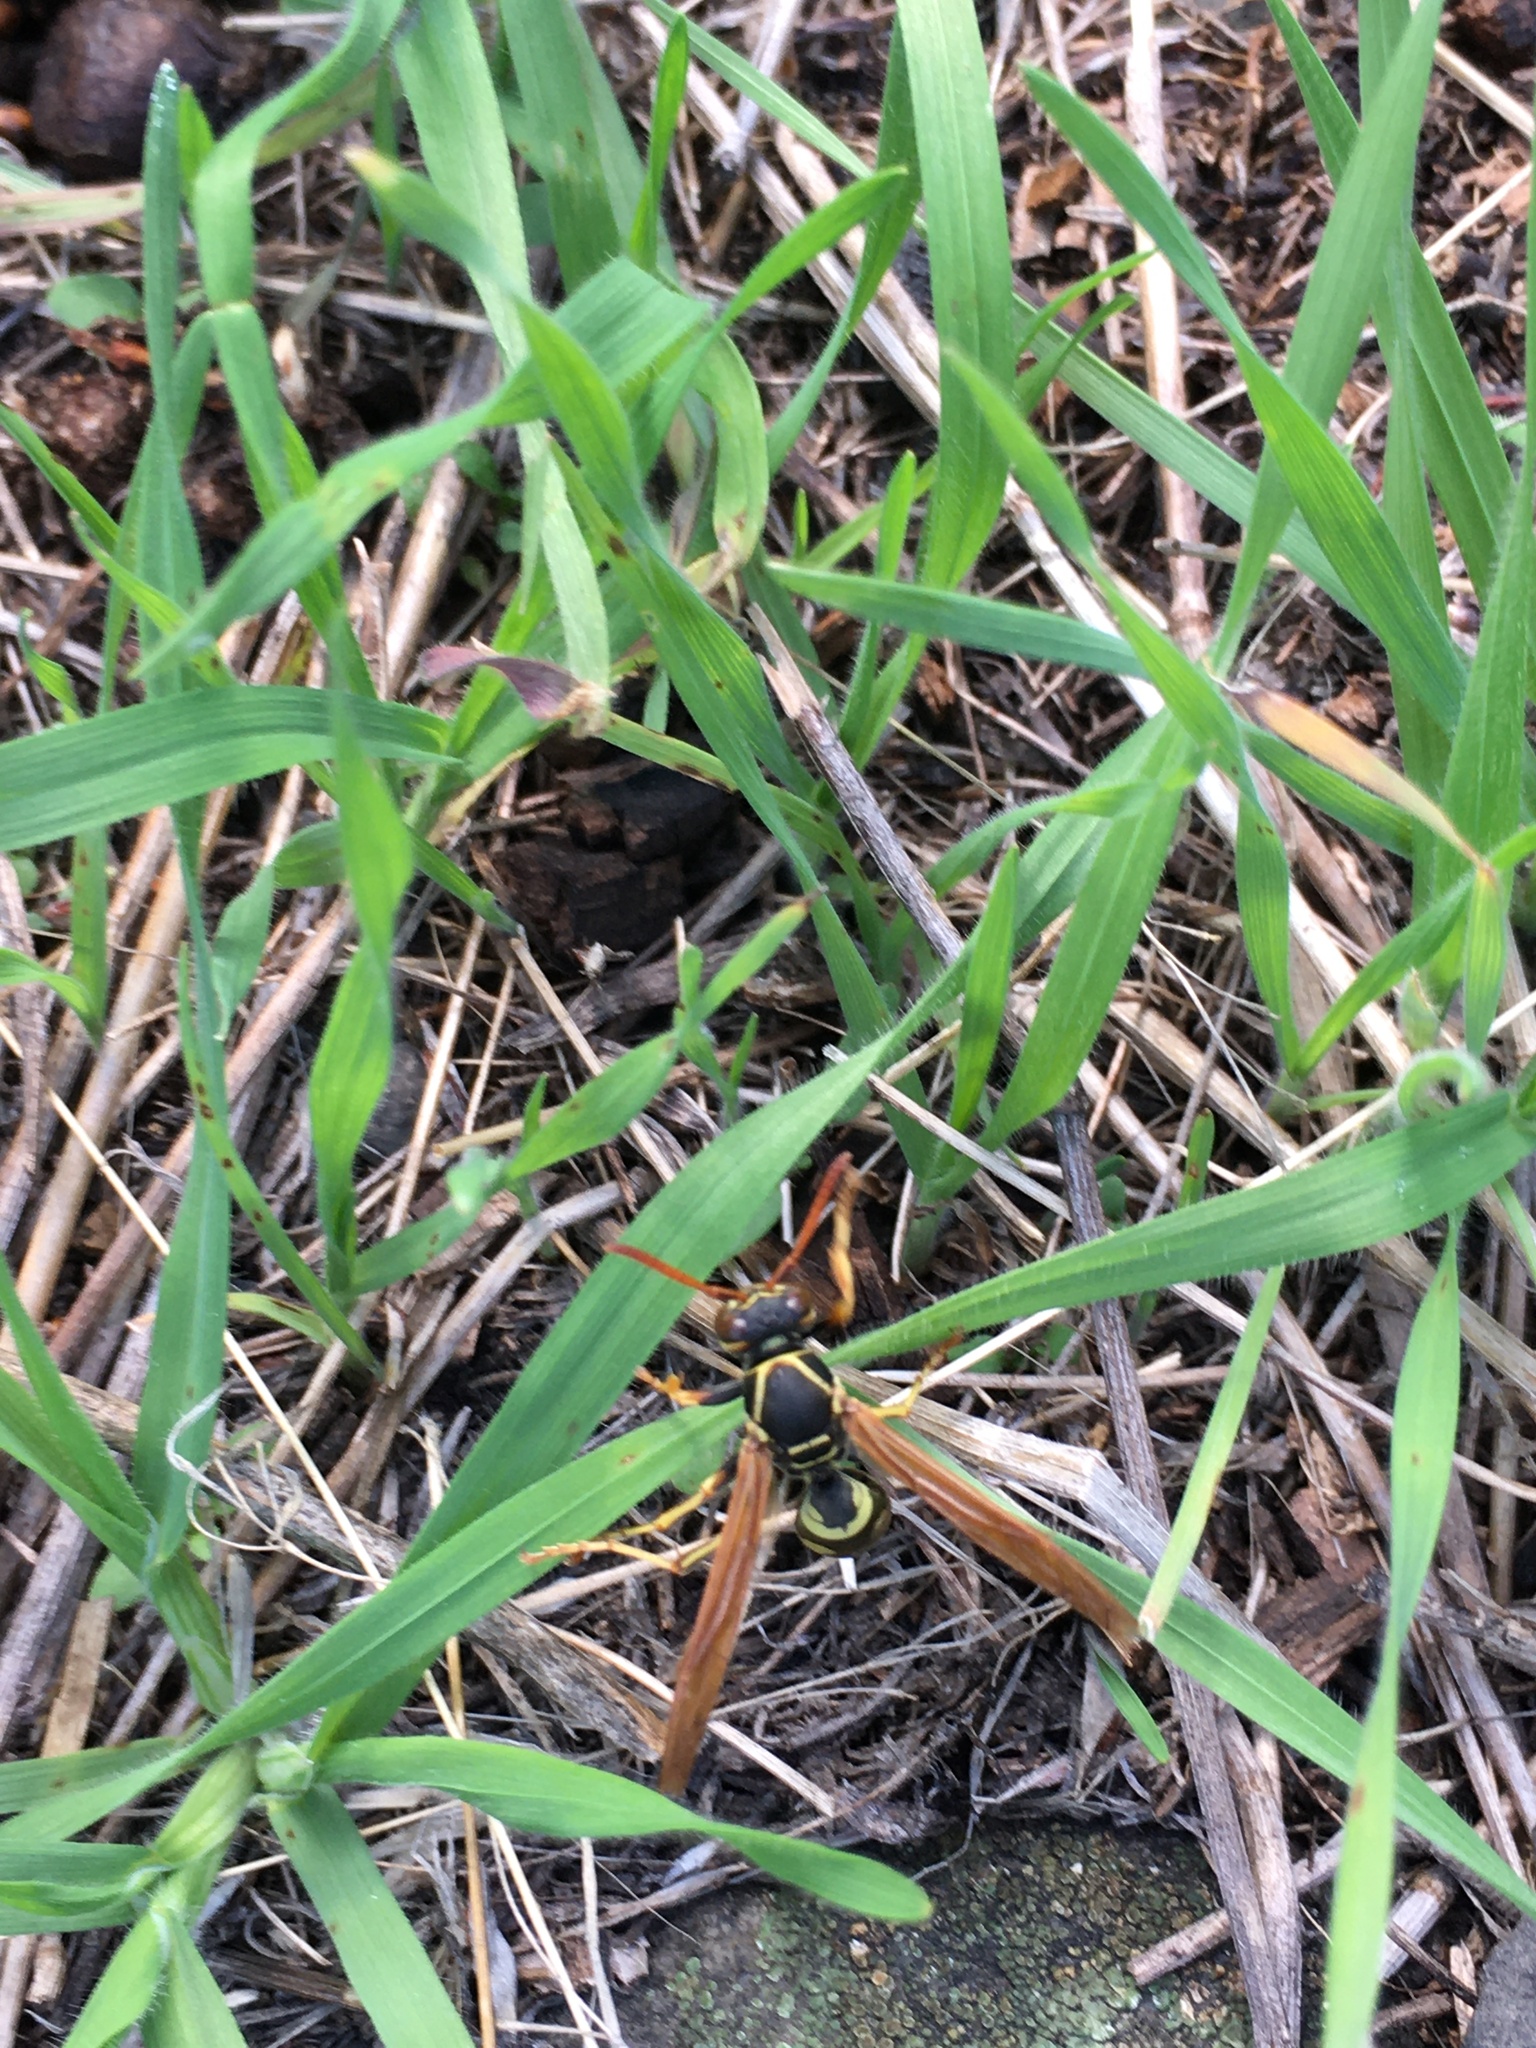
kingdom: Animalia
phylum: Arthropoda
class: Insecta
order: Hymenoptera
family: Eumenidae
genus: Polistes
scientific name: Polistes aurifer
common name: Paper wasp
